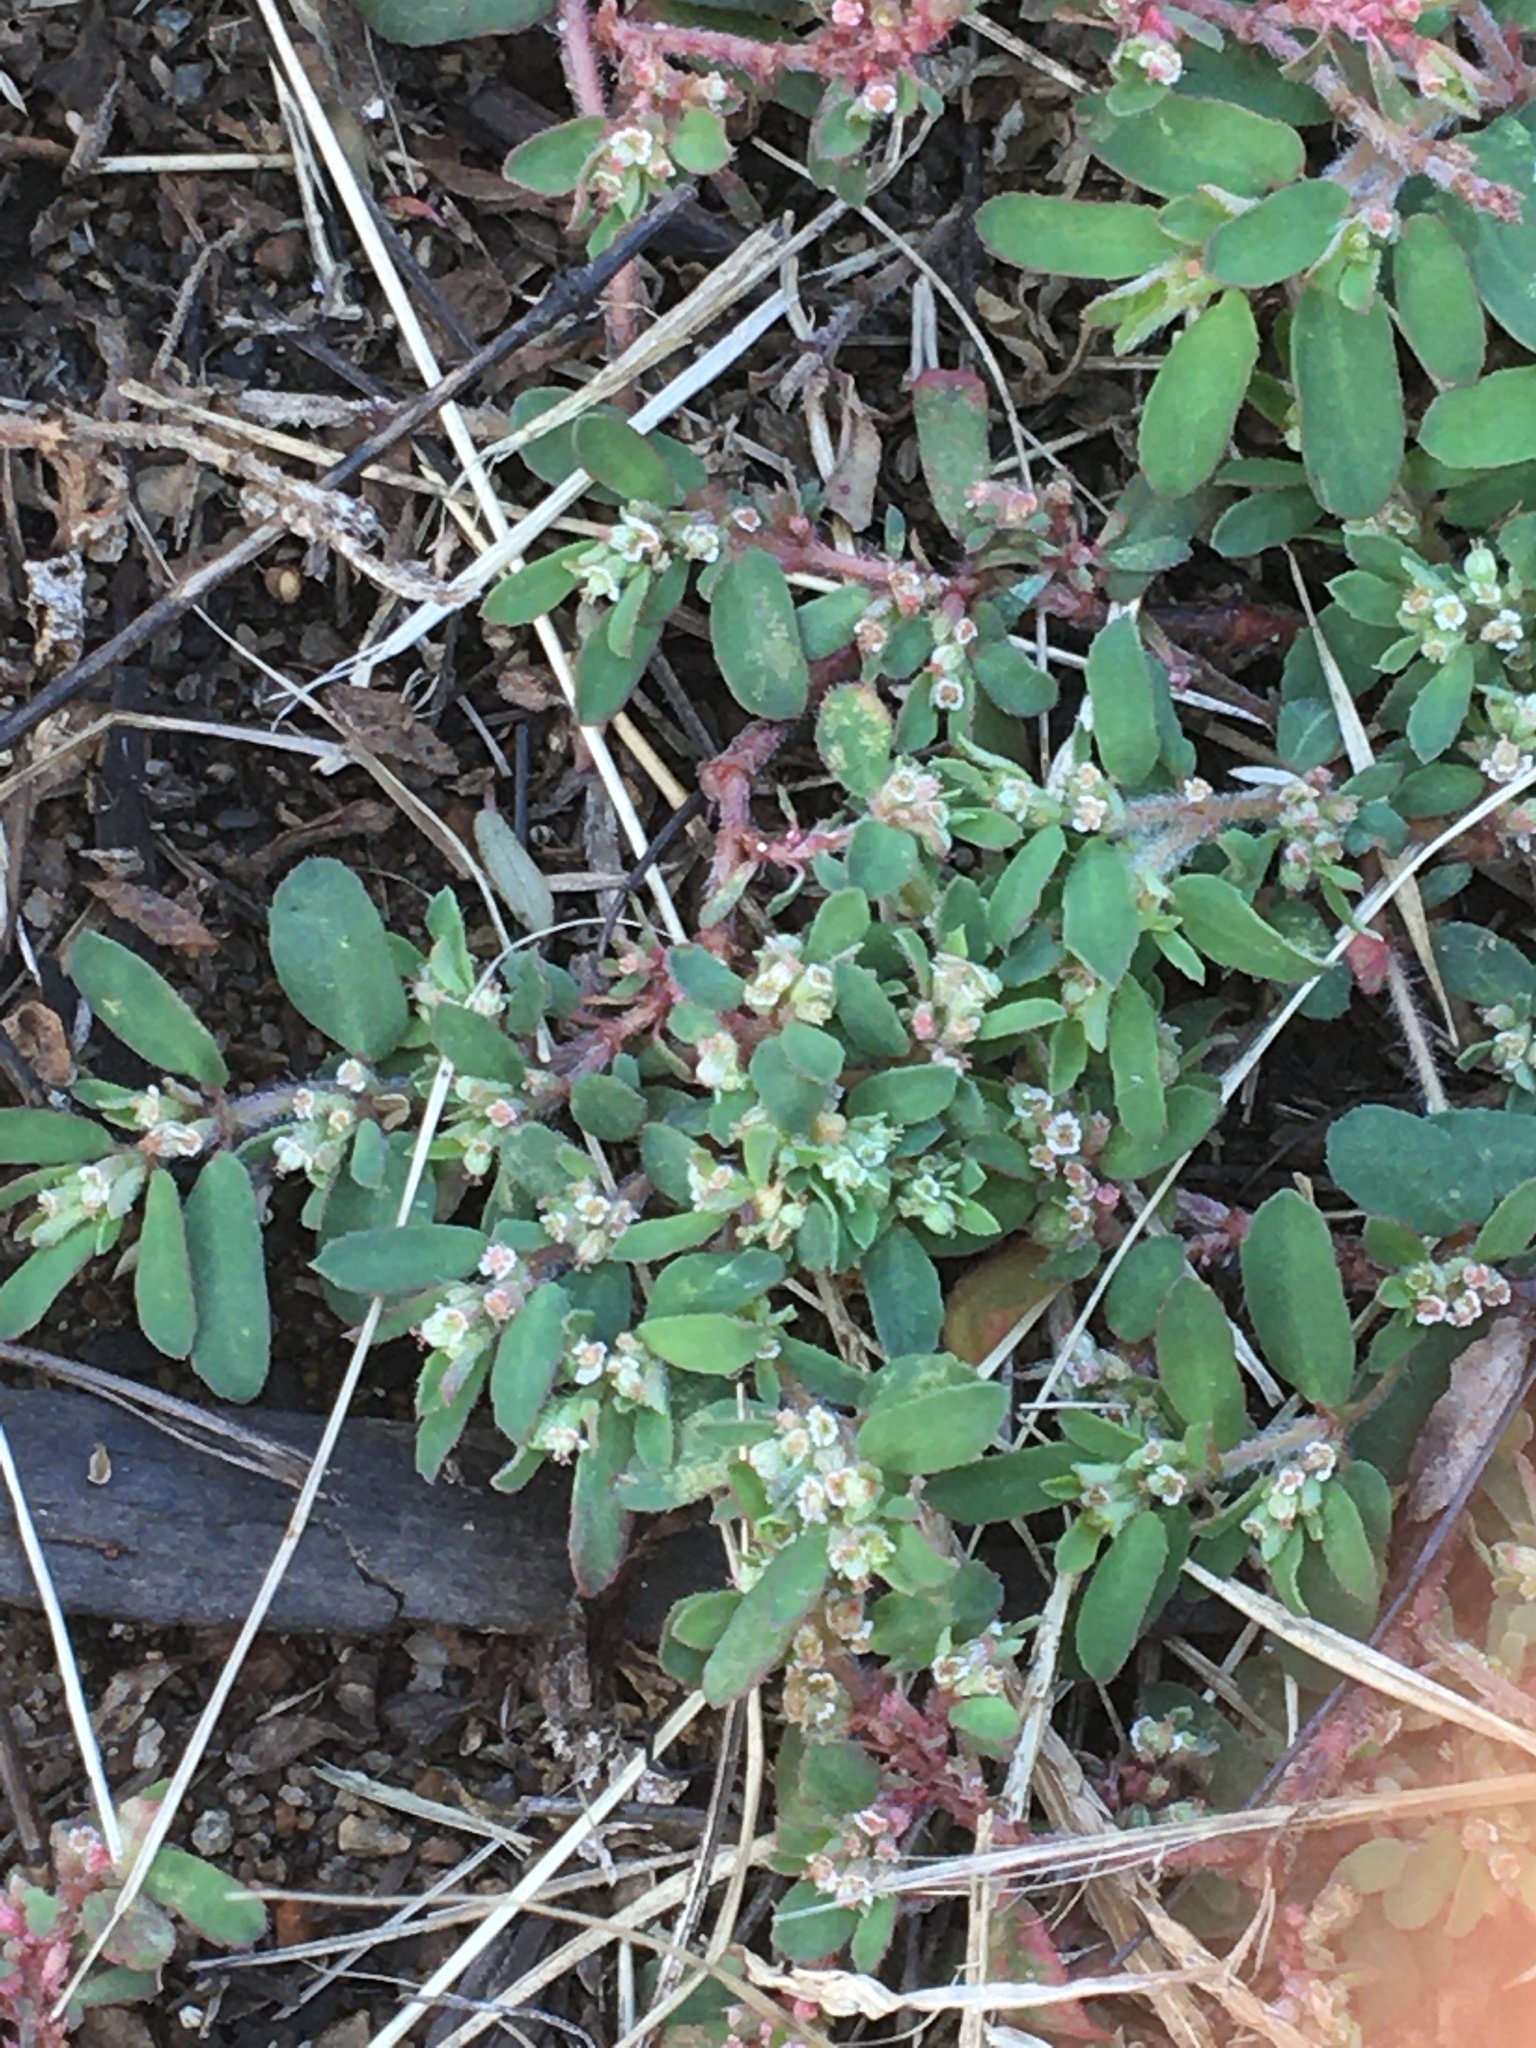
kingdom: Plantae
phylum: Tracheophyta
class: Magnoliopsida
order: Malpighiales
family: Euphorbiaceae
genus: Euphorbia
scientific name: Euphorbia maculata
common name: Spotted spurge
